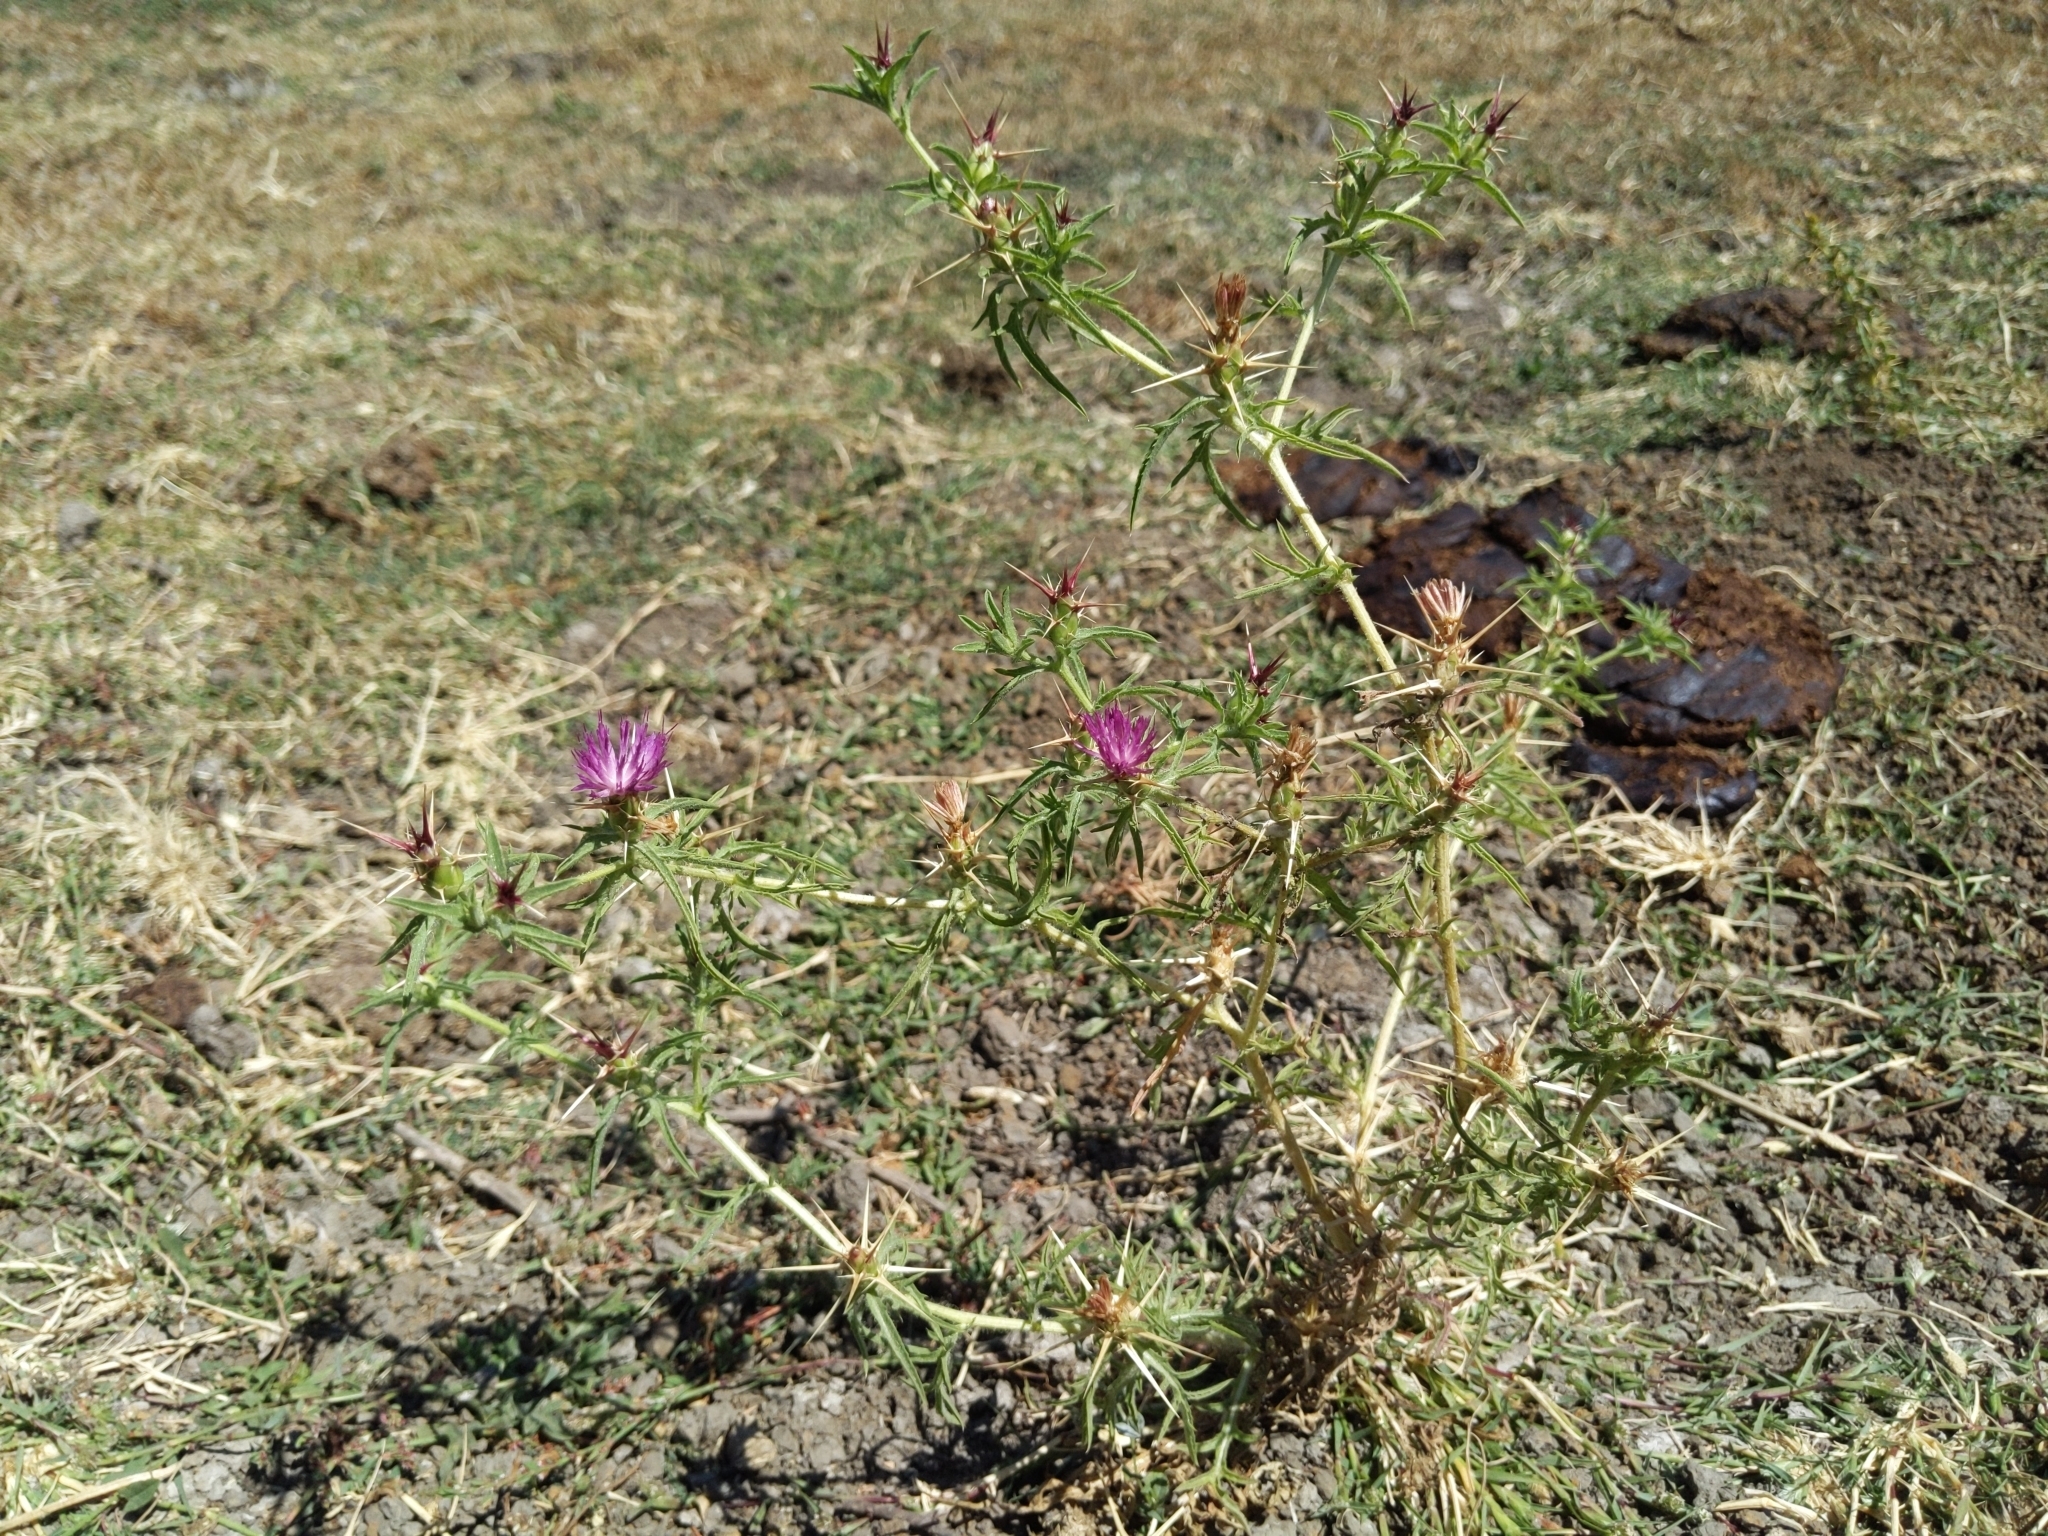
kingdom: Plantae
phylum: Tracheophyta
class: Magnoliopsida
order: Asterales
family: Asteraceae
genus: Centaurea
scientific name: Centaurea calcitrapa
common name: Red star-thistle
